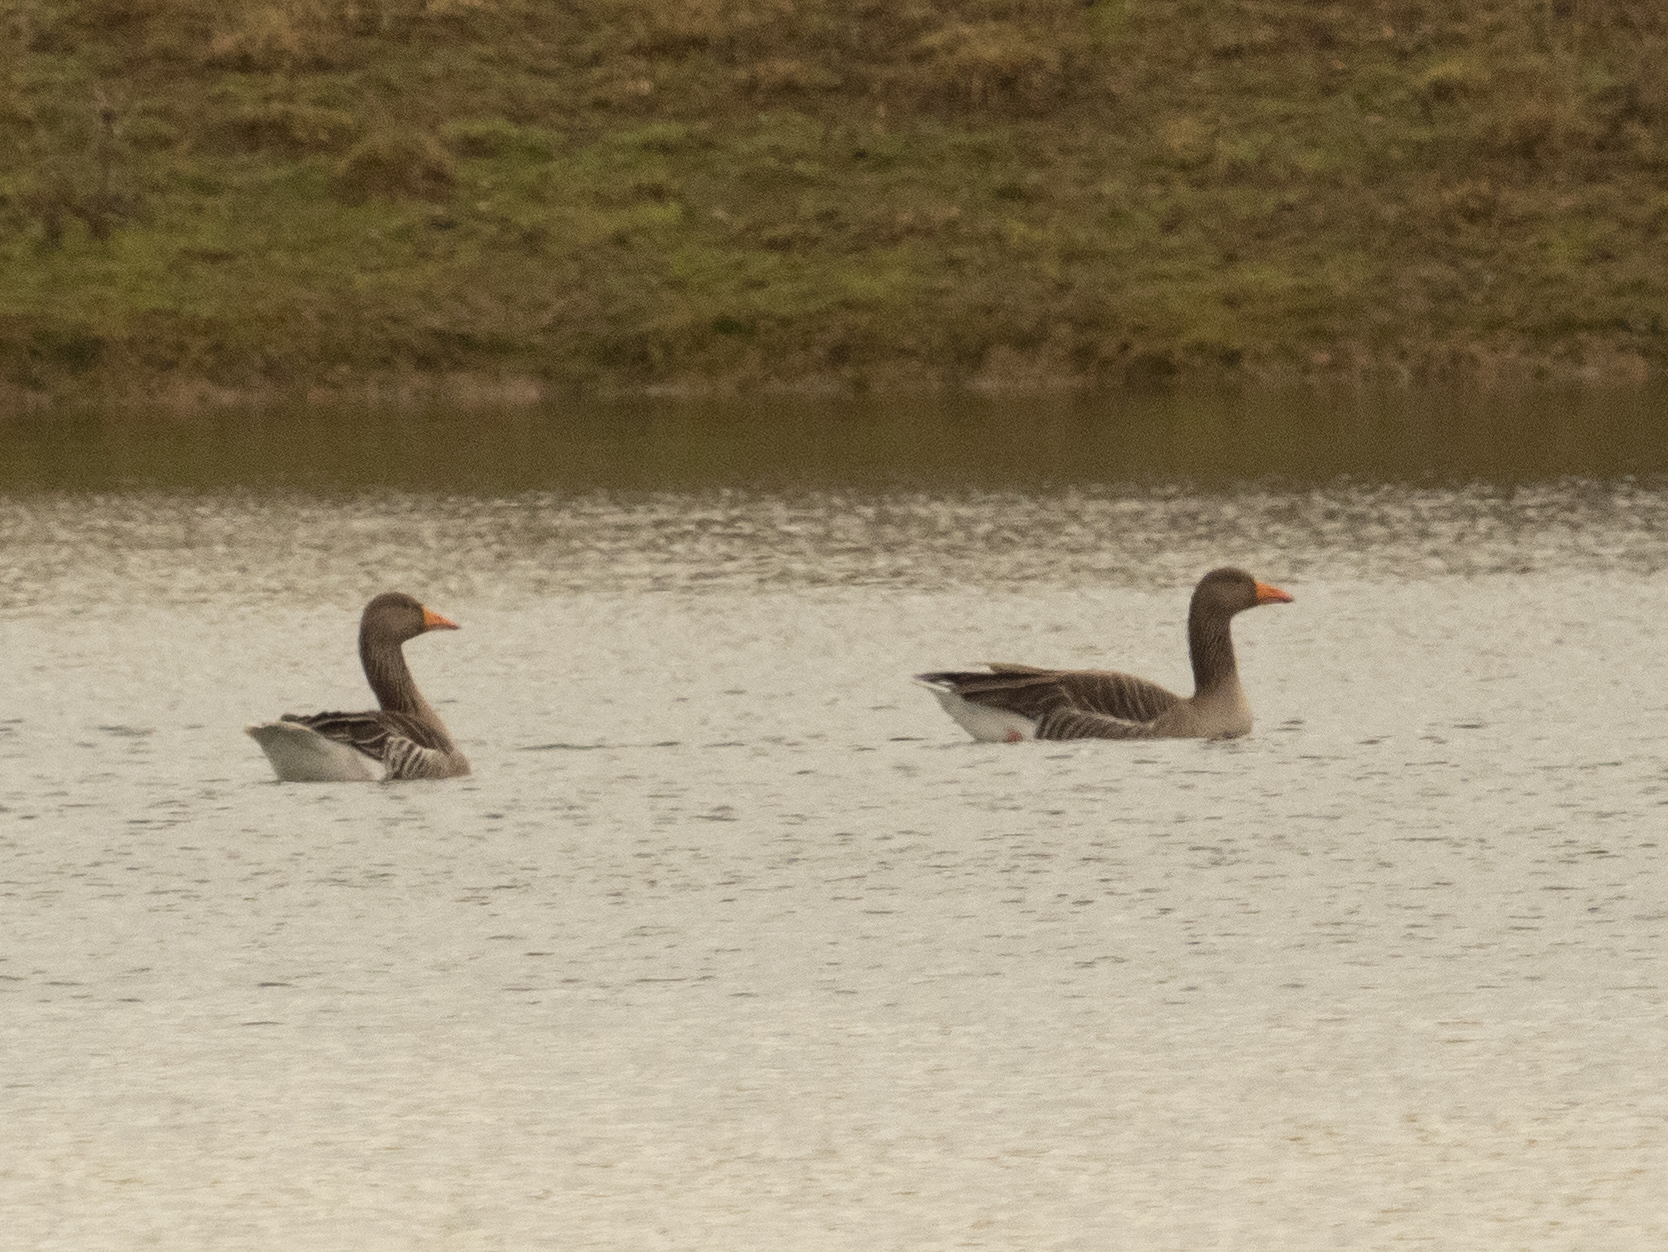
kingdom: Animalia
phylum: Chordata
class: Aves
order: Anseriformes
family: Anatidae
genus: Anser
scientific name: Anser anser
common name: Greylag goose
